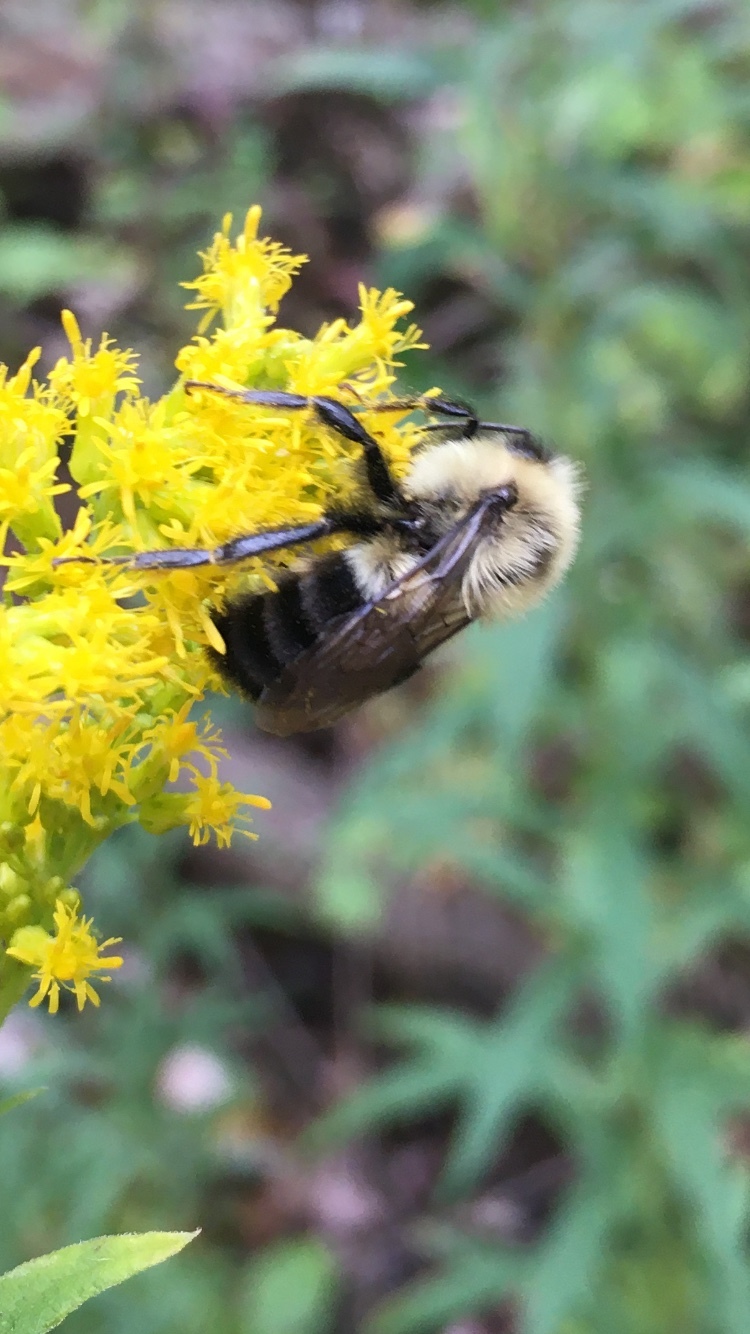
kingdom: Animalia
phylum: Arthropoda
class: Insecta
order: Hymenoptera
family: Apidae
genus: Bombus
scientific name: Bombus impatiens
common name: Common eastern bumble bee
